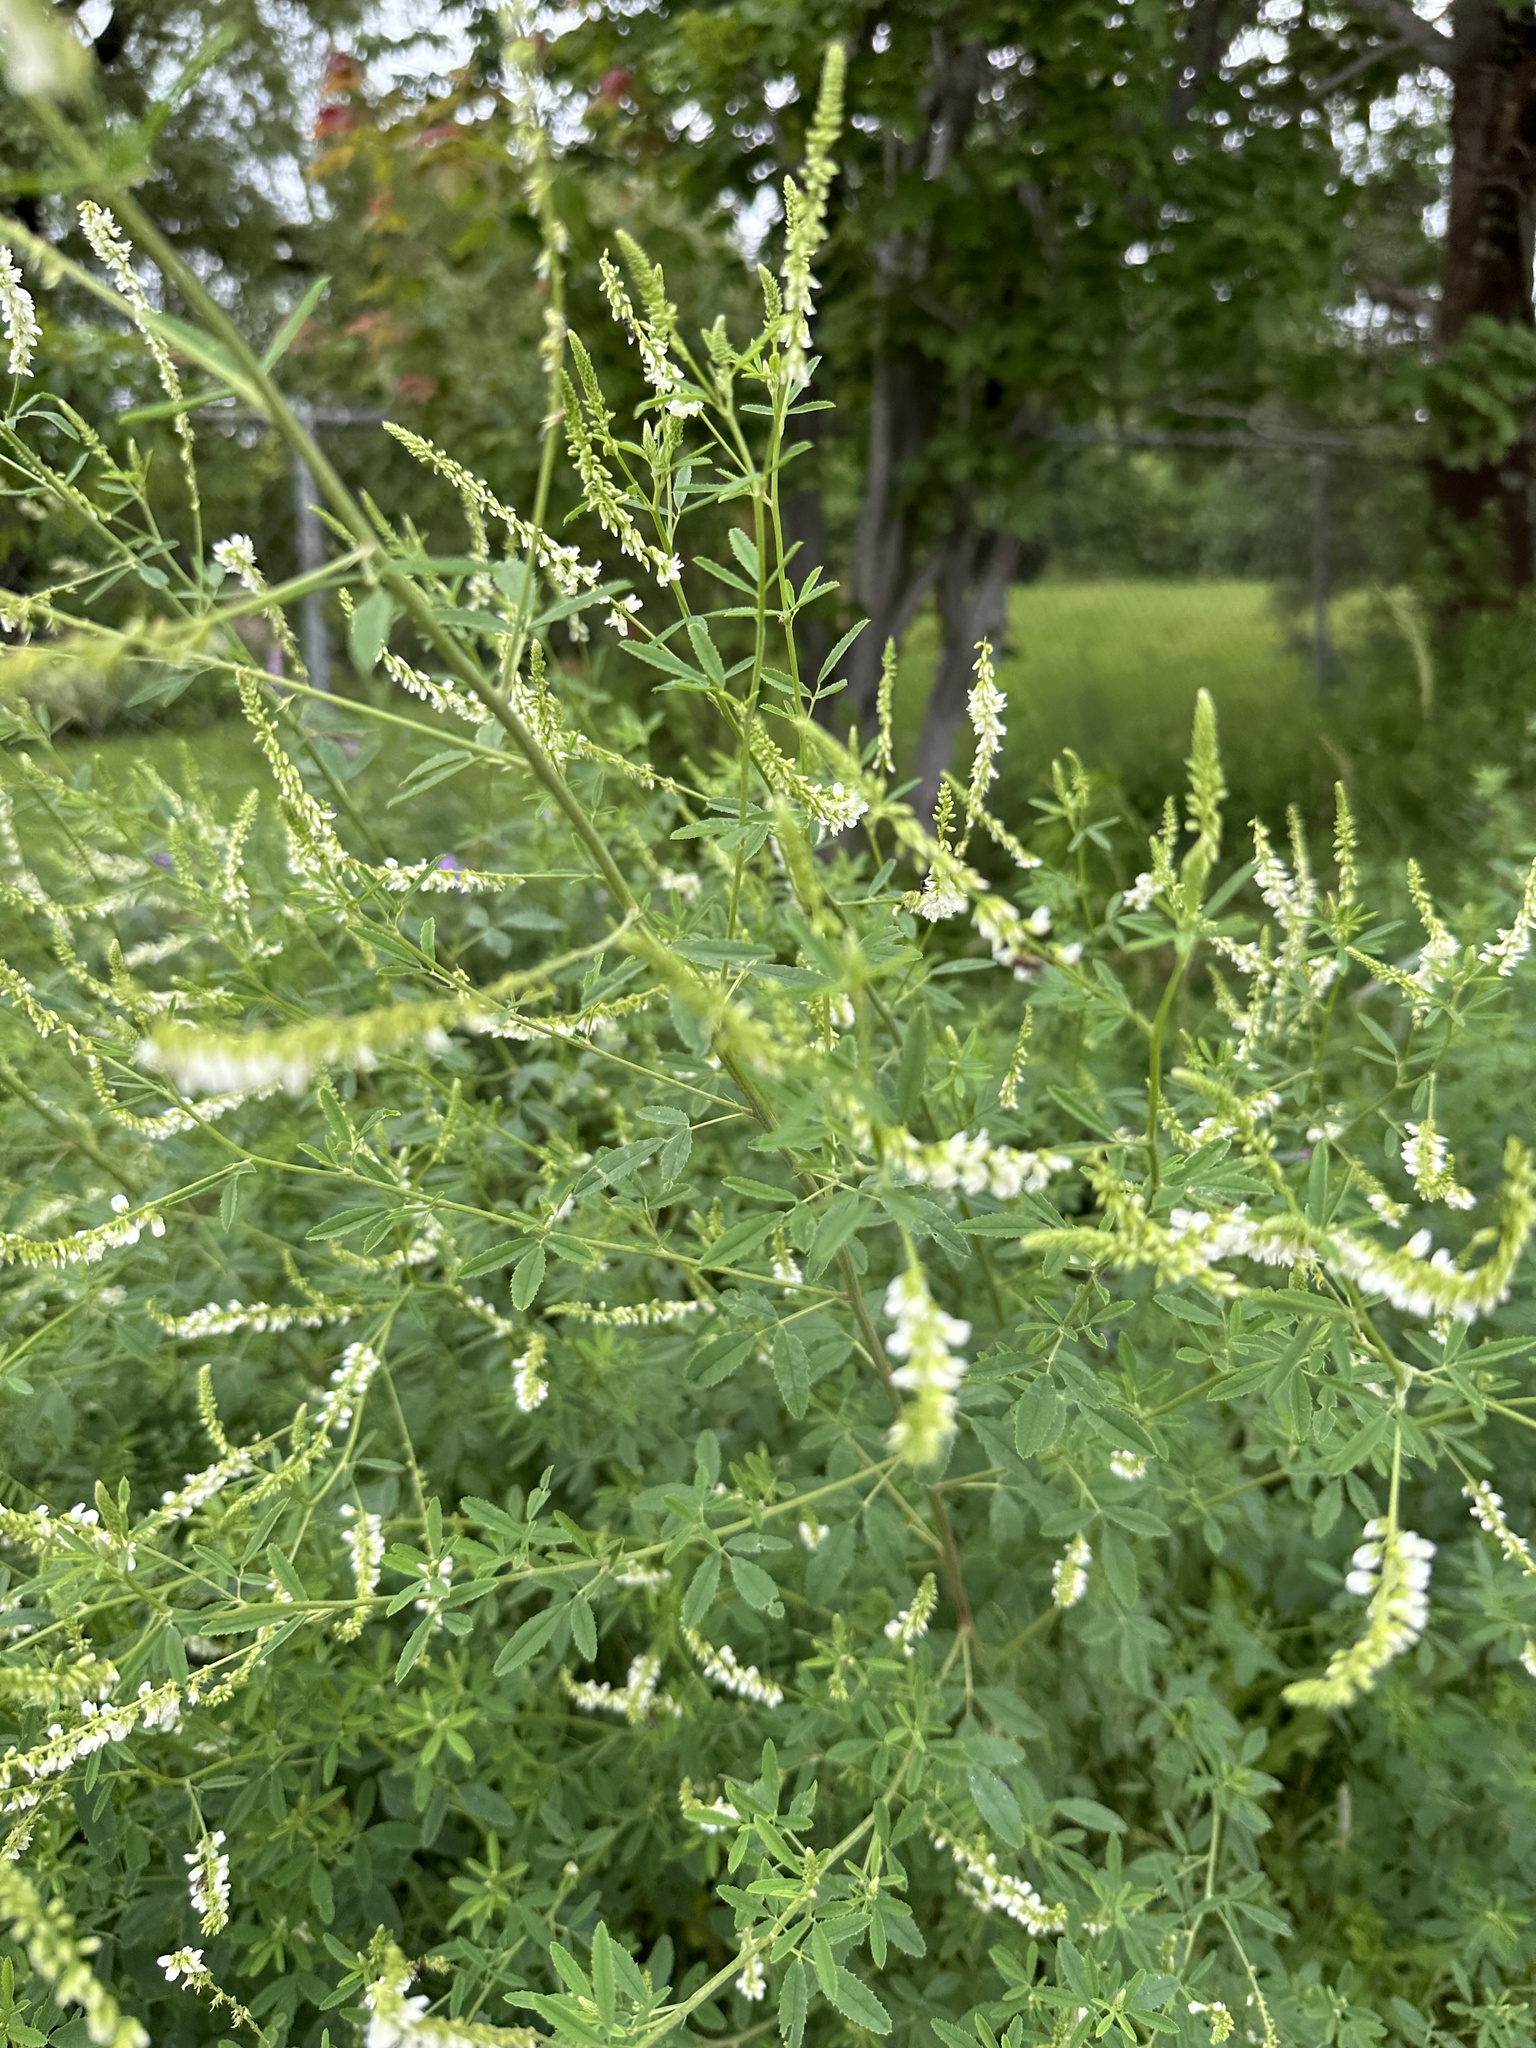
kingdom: Plantae
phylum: Tracheophyta
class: Magnoliopsida
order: Fabales
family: Fabaceae
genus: Melilotus
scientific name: Melilotus albus
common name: White melilot
